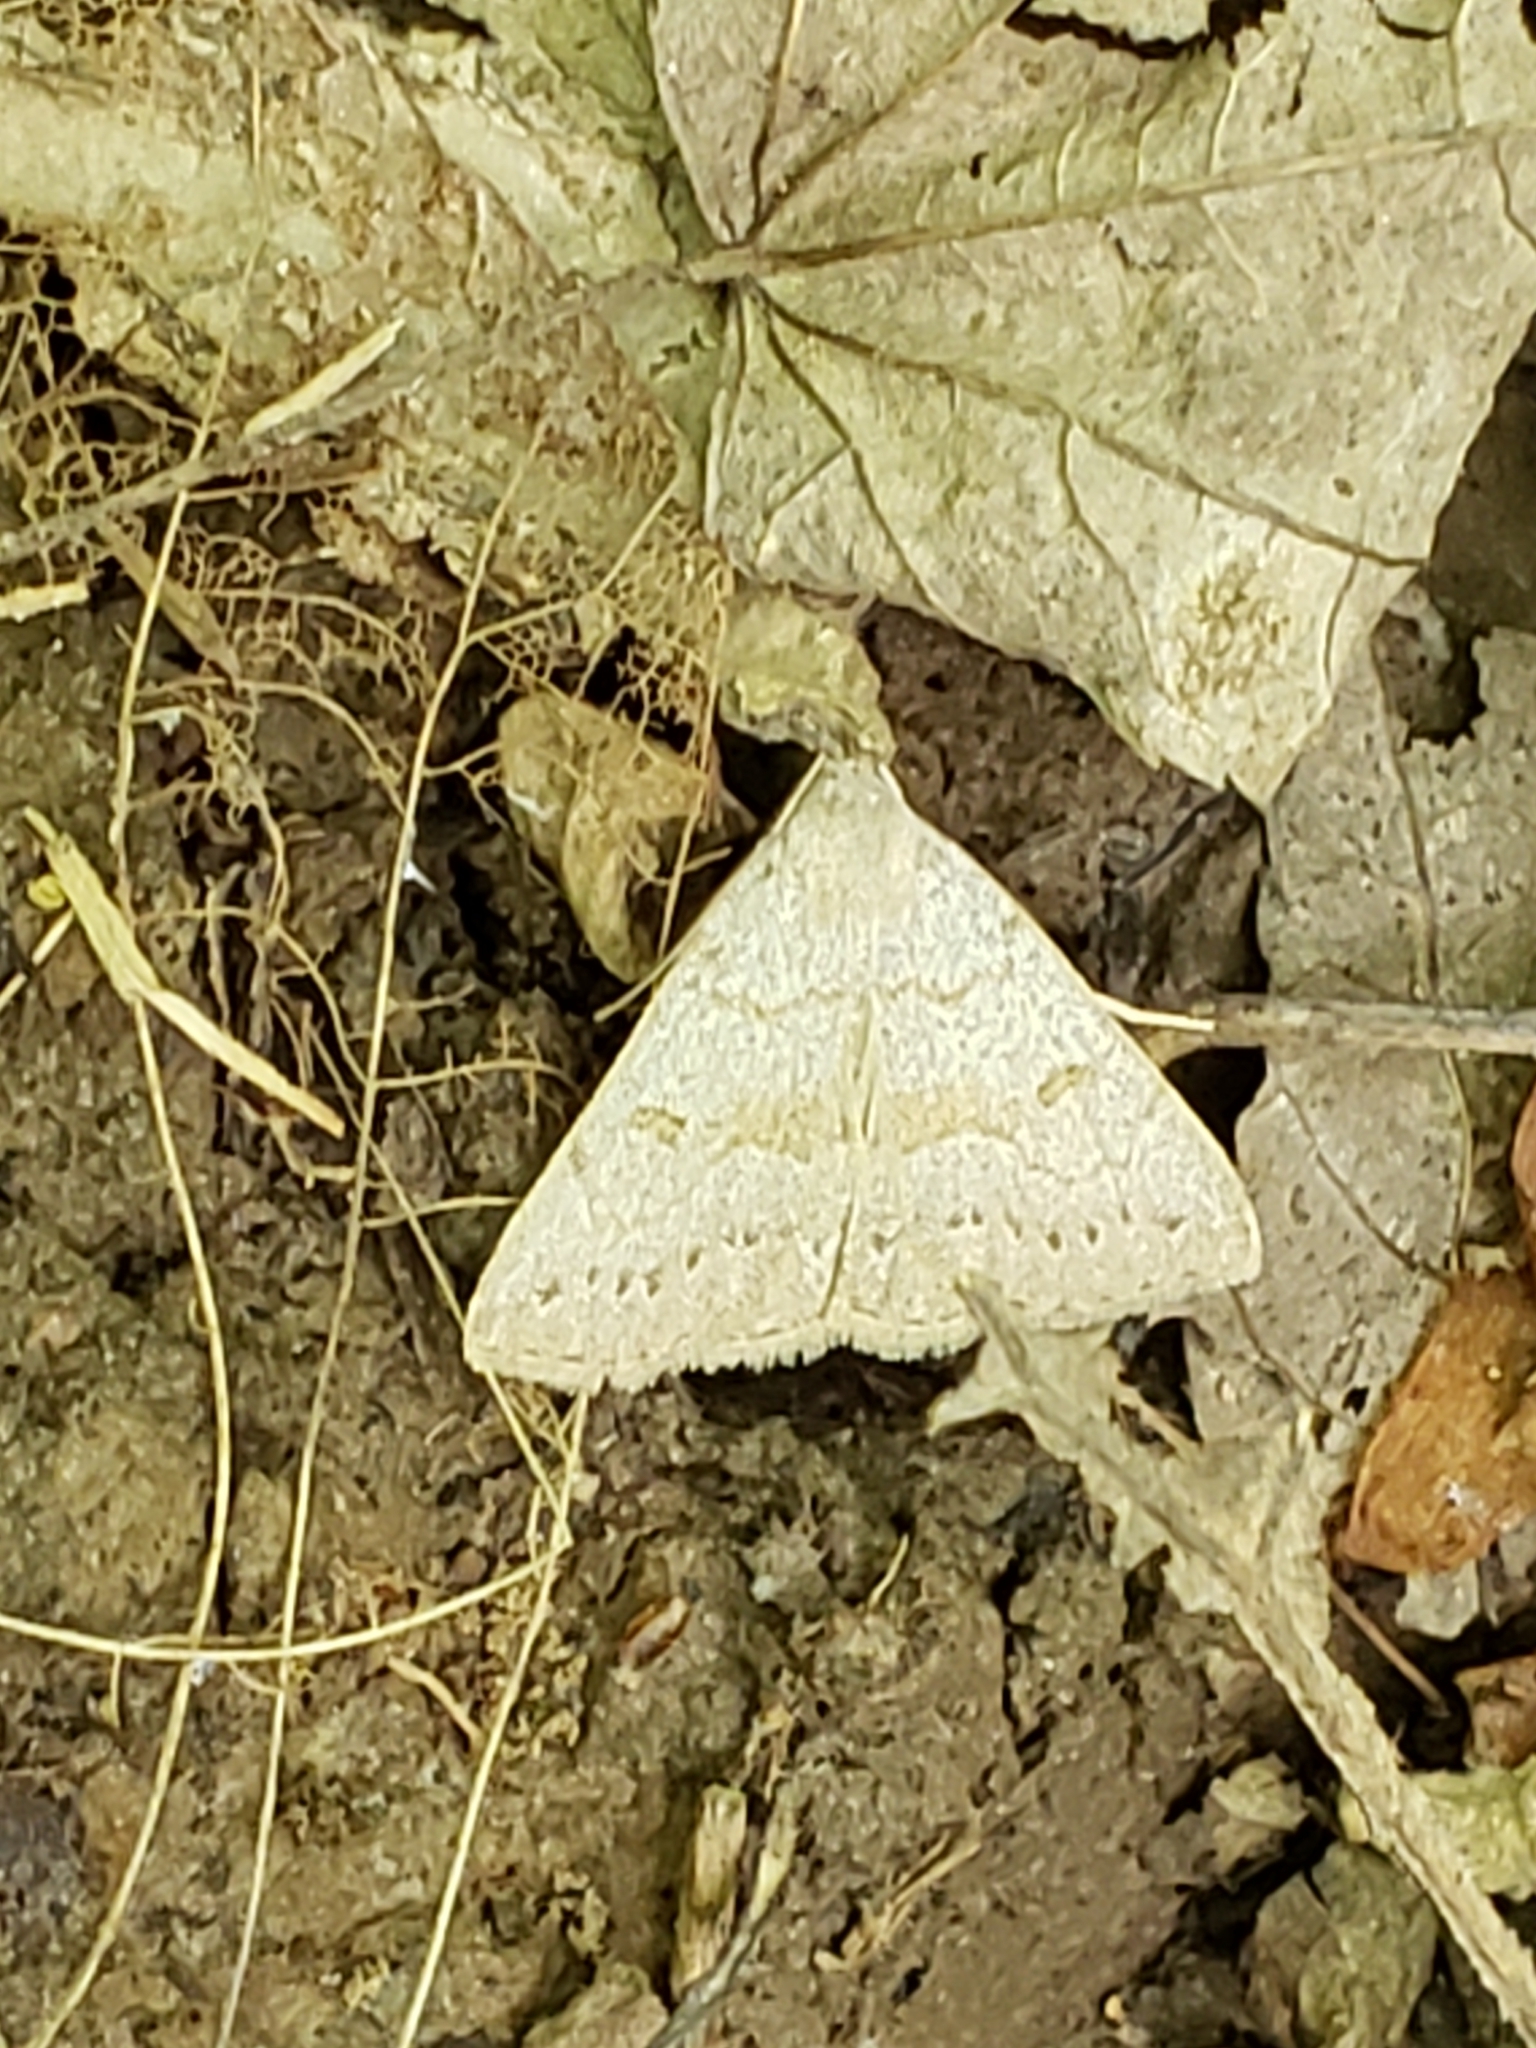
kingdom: Animalia
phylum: Arthropoda
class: Insecta
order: Lepidoptera
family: Erebidae
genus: Macrochilo
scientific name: Macrochilo morbidalis
